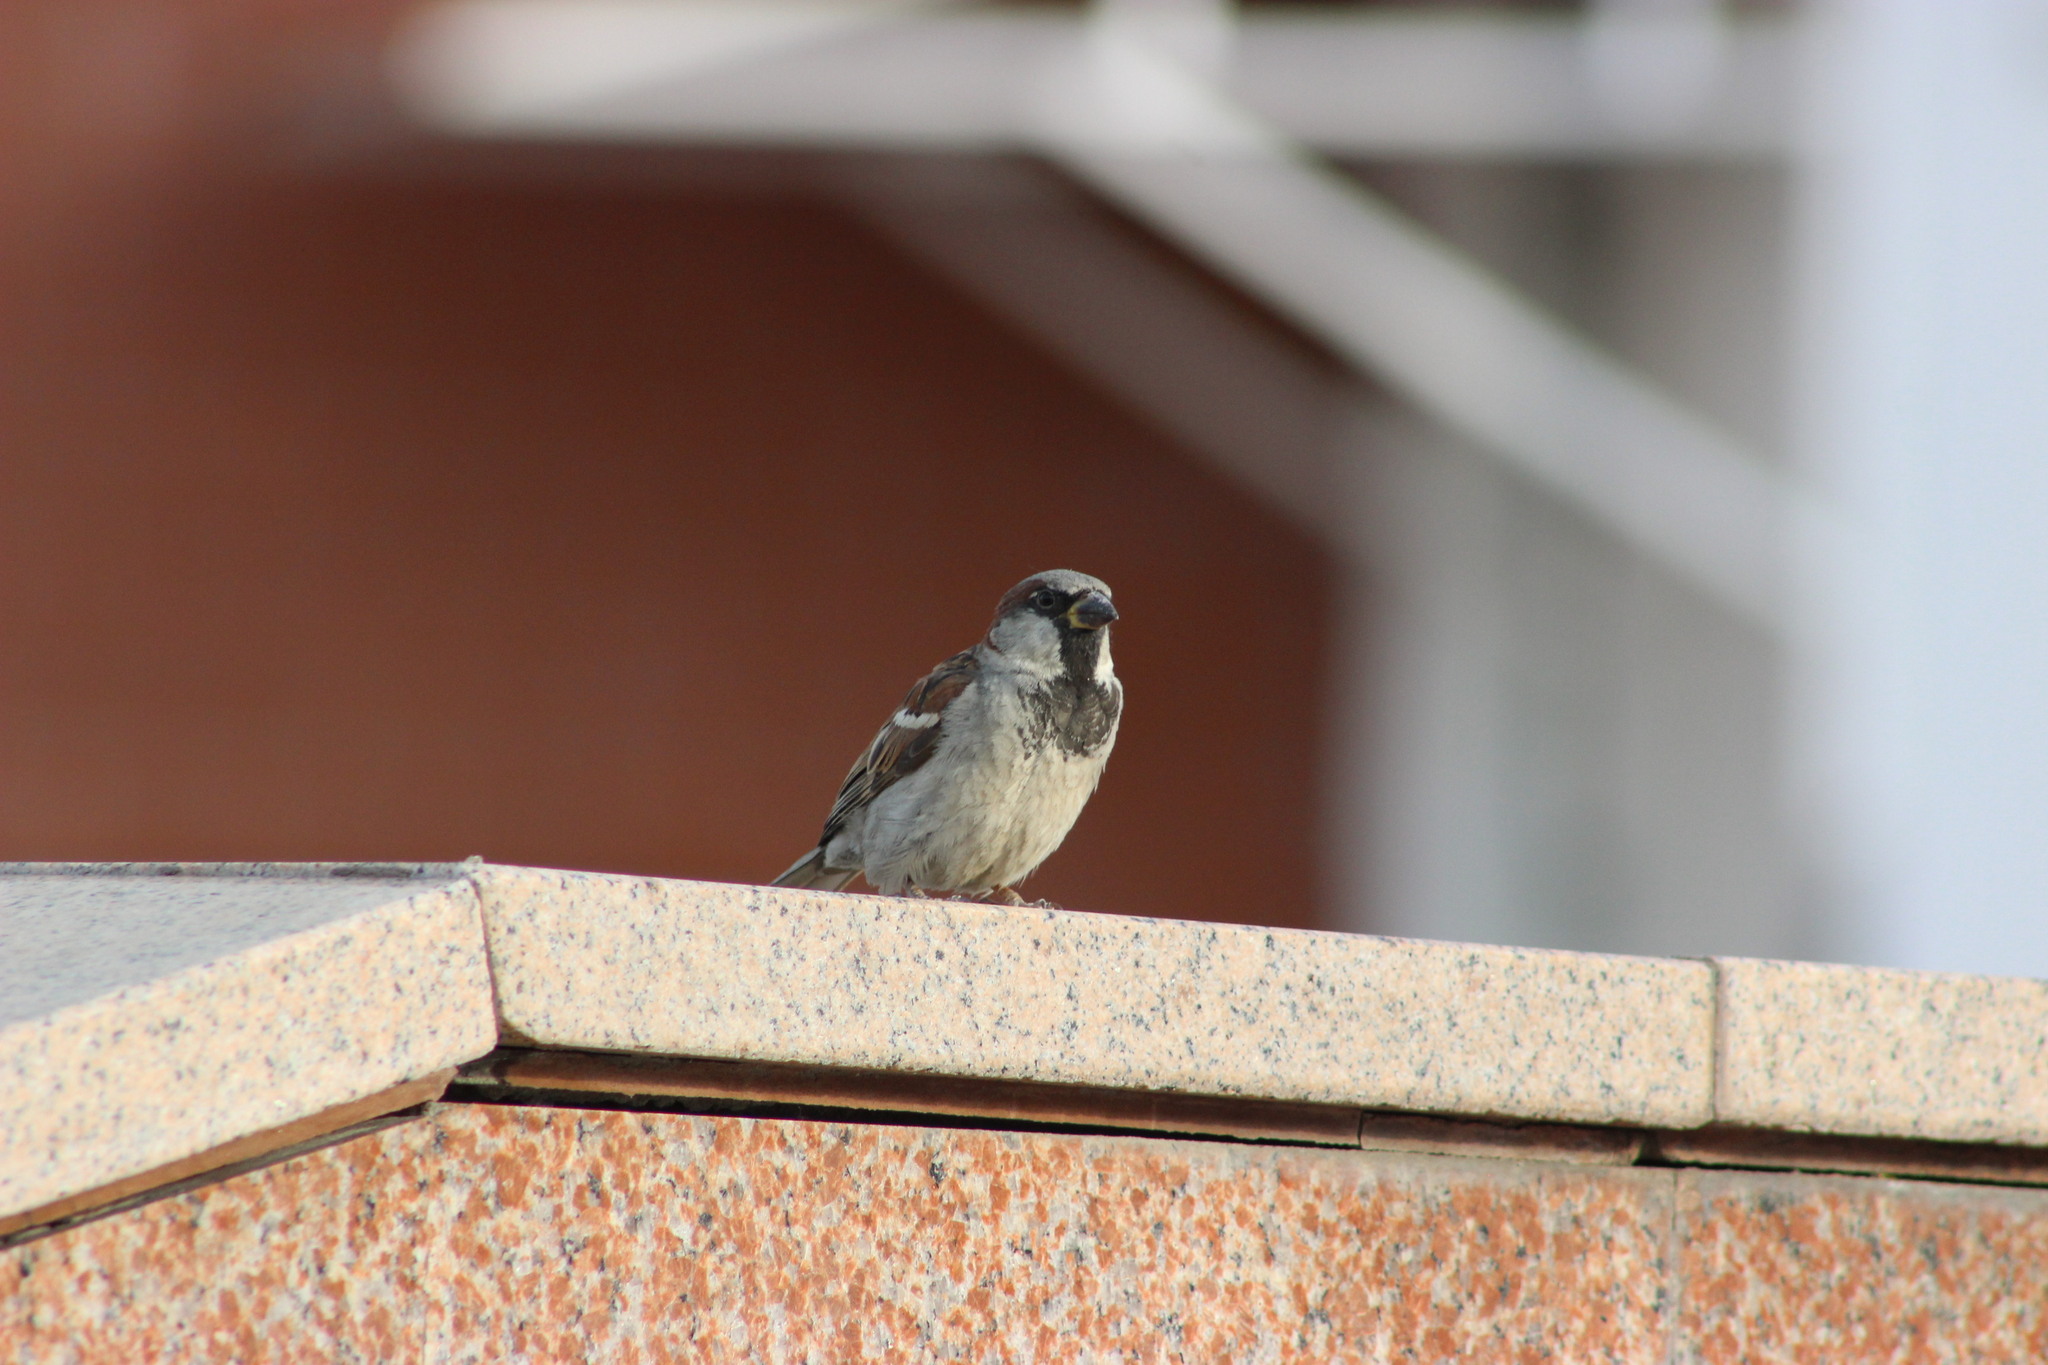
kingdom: Animalia
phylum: Chordata
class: Aves
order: Passeriformes
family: Passeridae
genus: Passer
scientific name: Passer domesticus
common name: House sparrow
